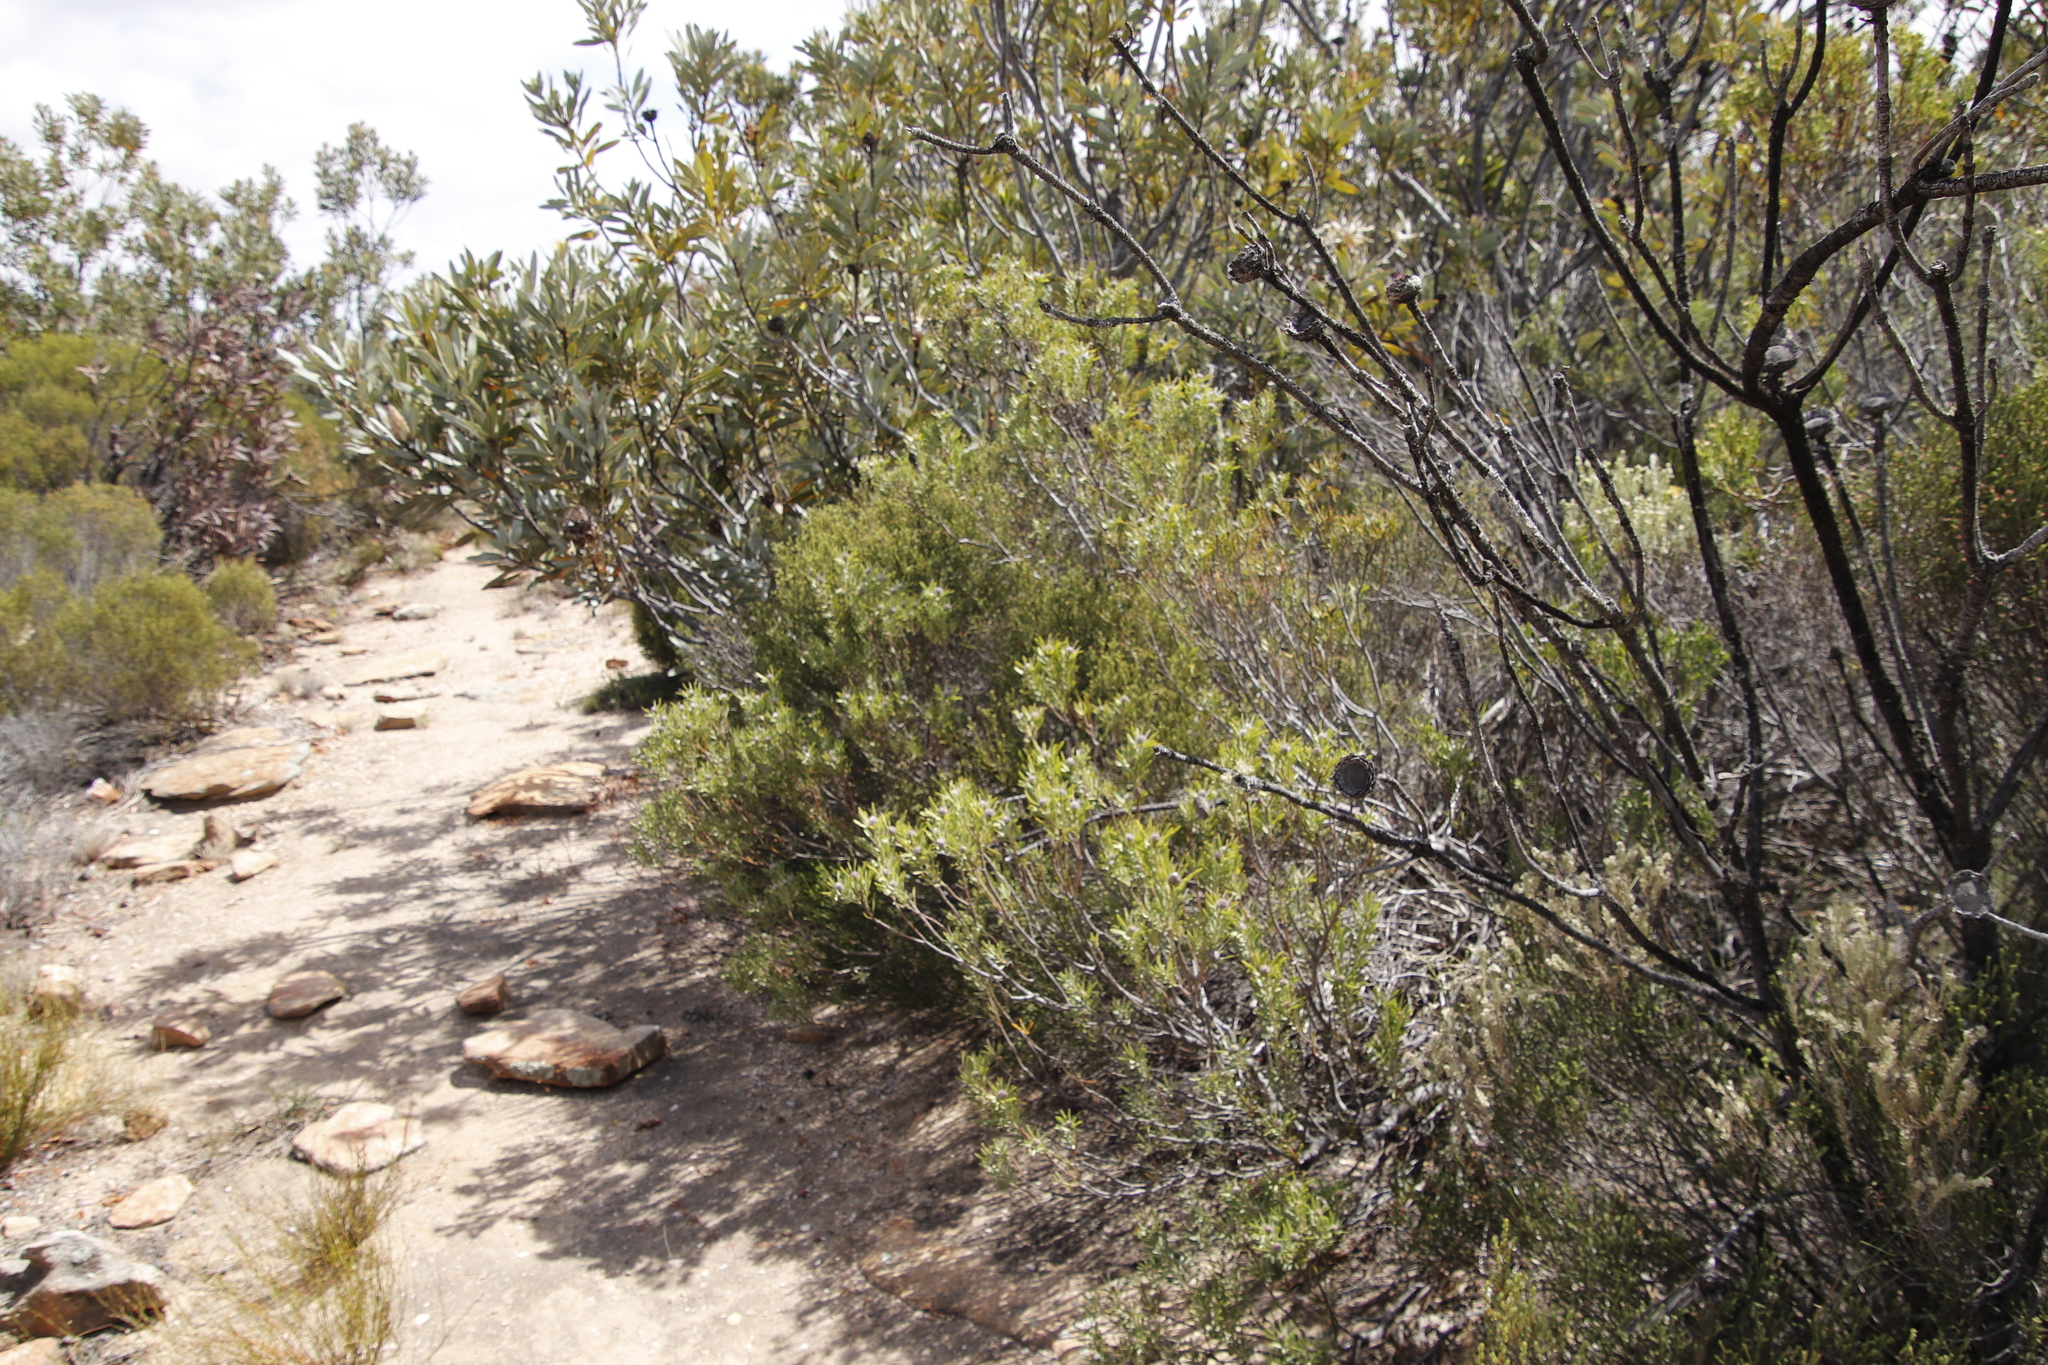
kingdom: Plantae
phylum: Tracheophyta
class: Magnoliopsida
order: Proteales
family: Proteaceae
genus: Leucadendron
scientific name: Leucadendron pubescens
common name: Grey conebush
